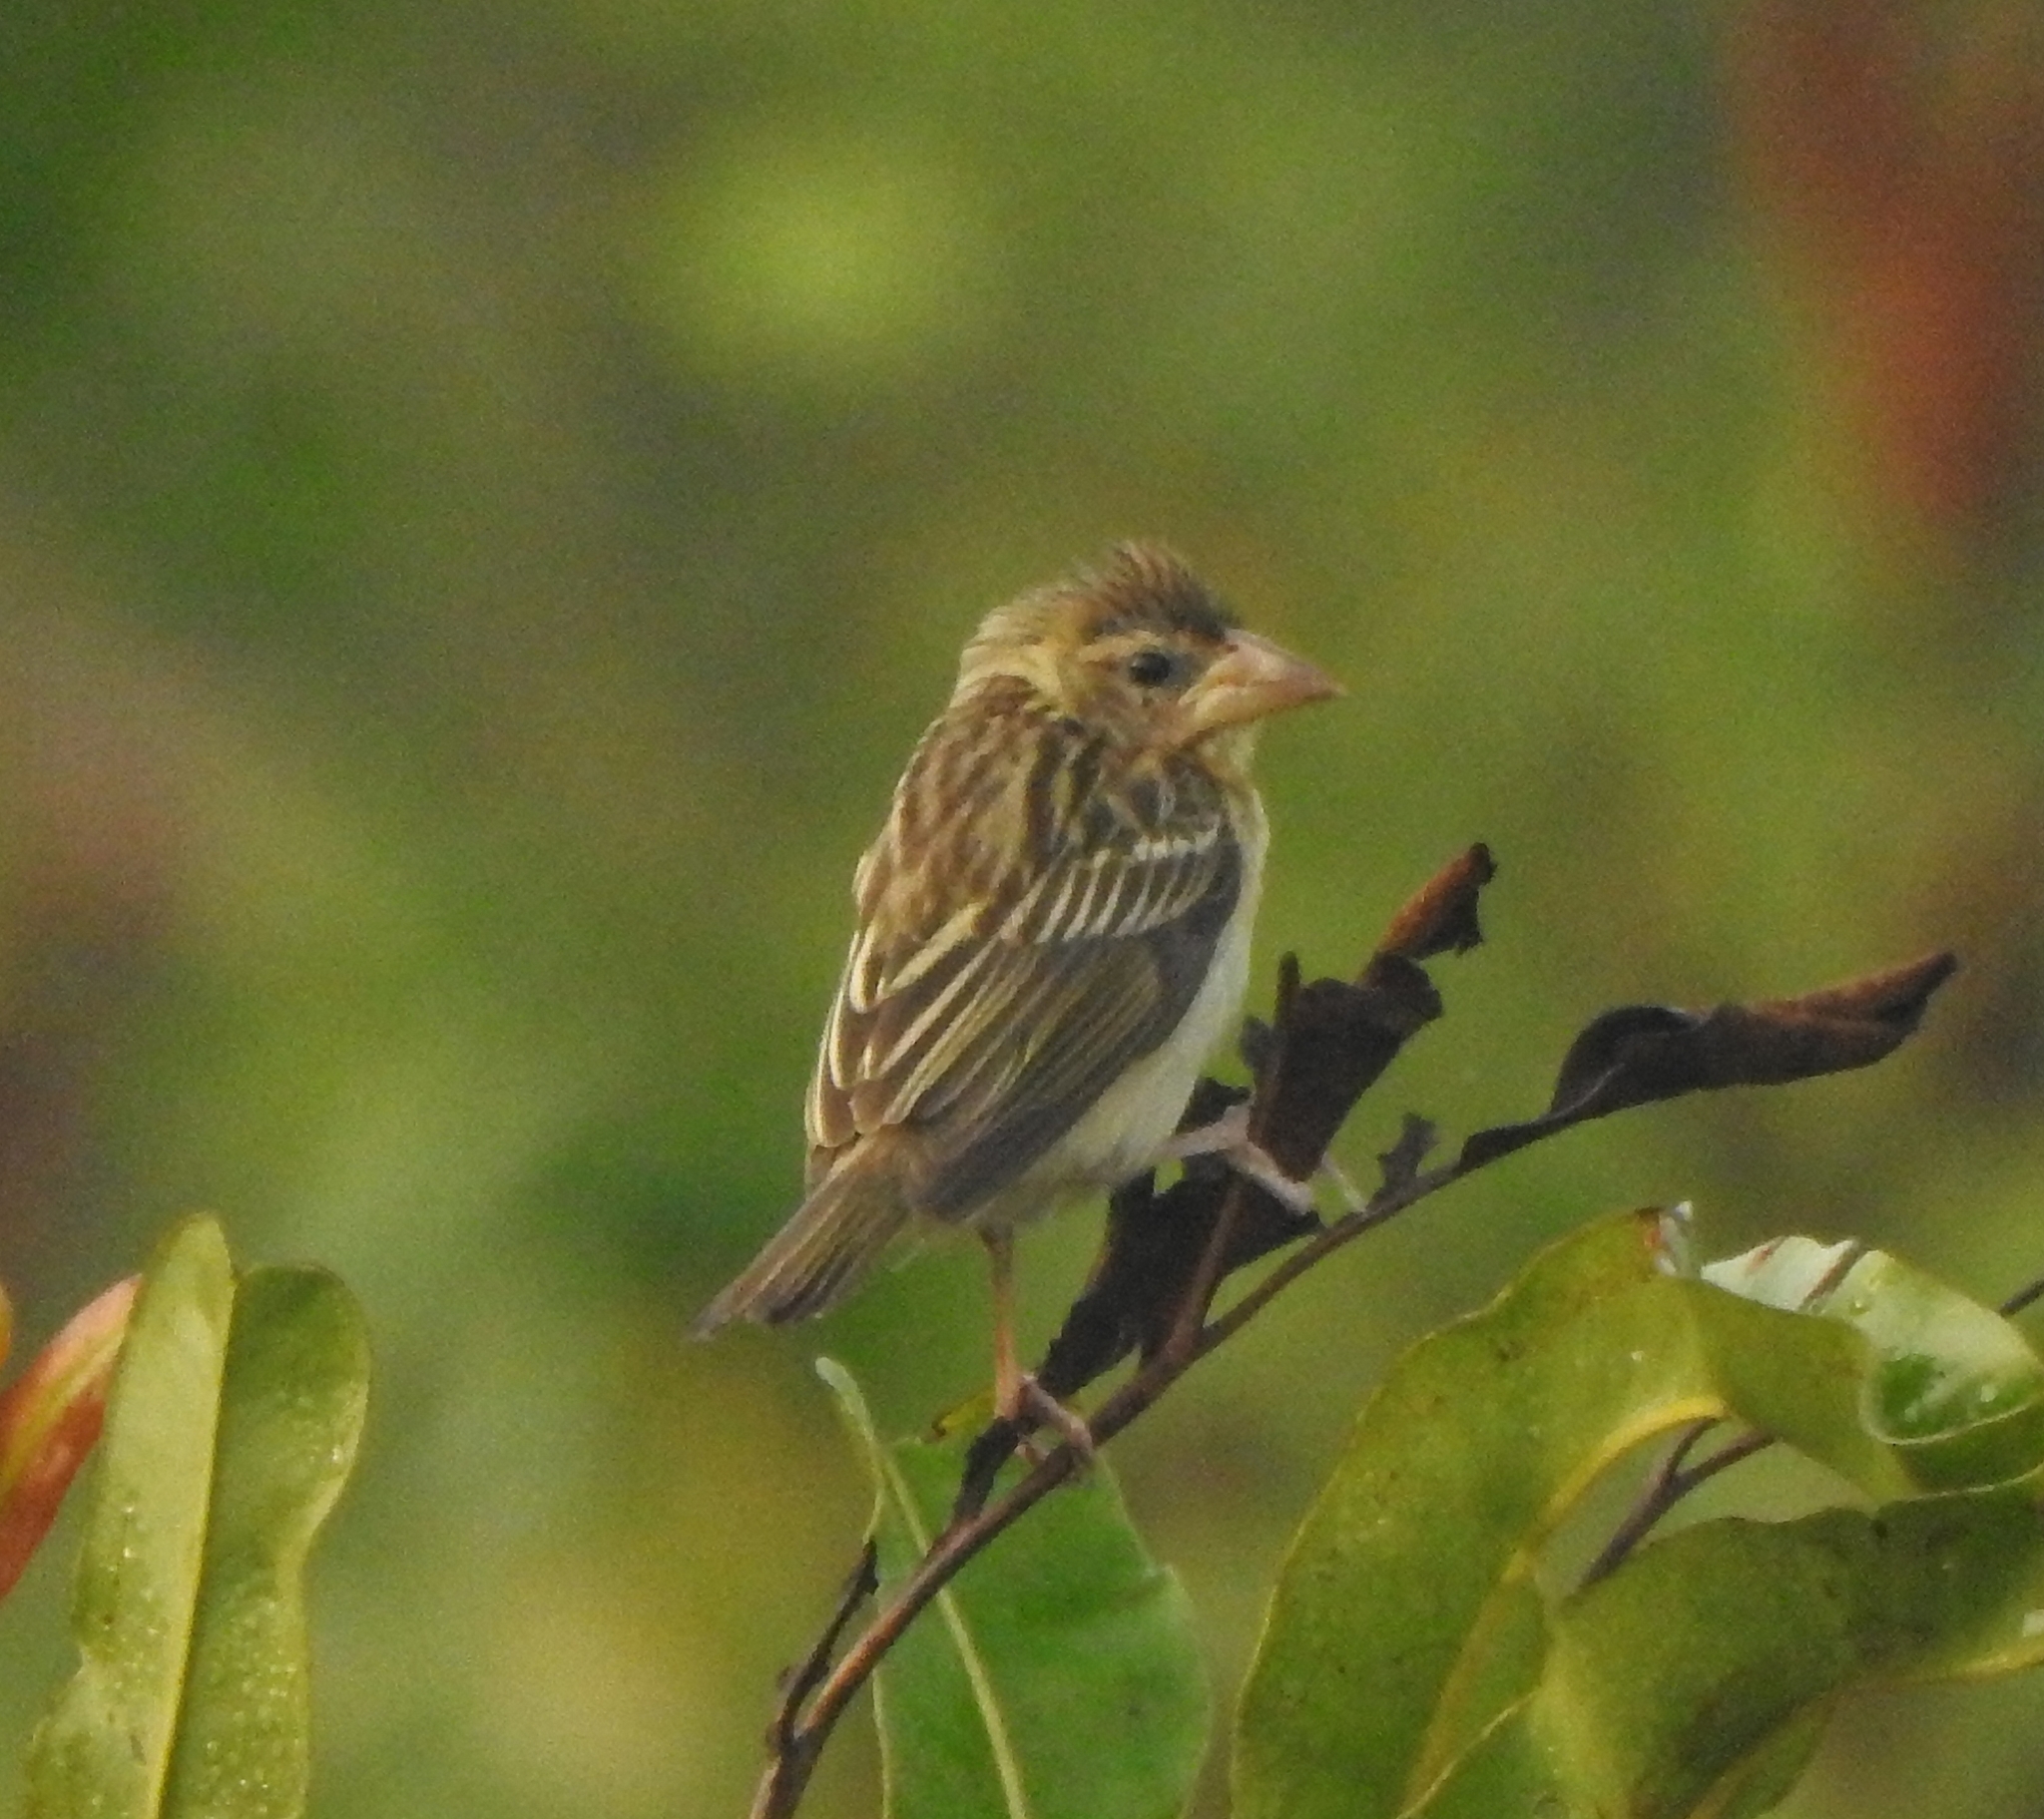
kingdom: Animalia
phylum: Chordata
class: Aves
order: Passeriformes
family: Ploceidae
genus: Ploceus
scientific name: Ploceus philippinus
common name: Baya weaver
